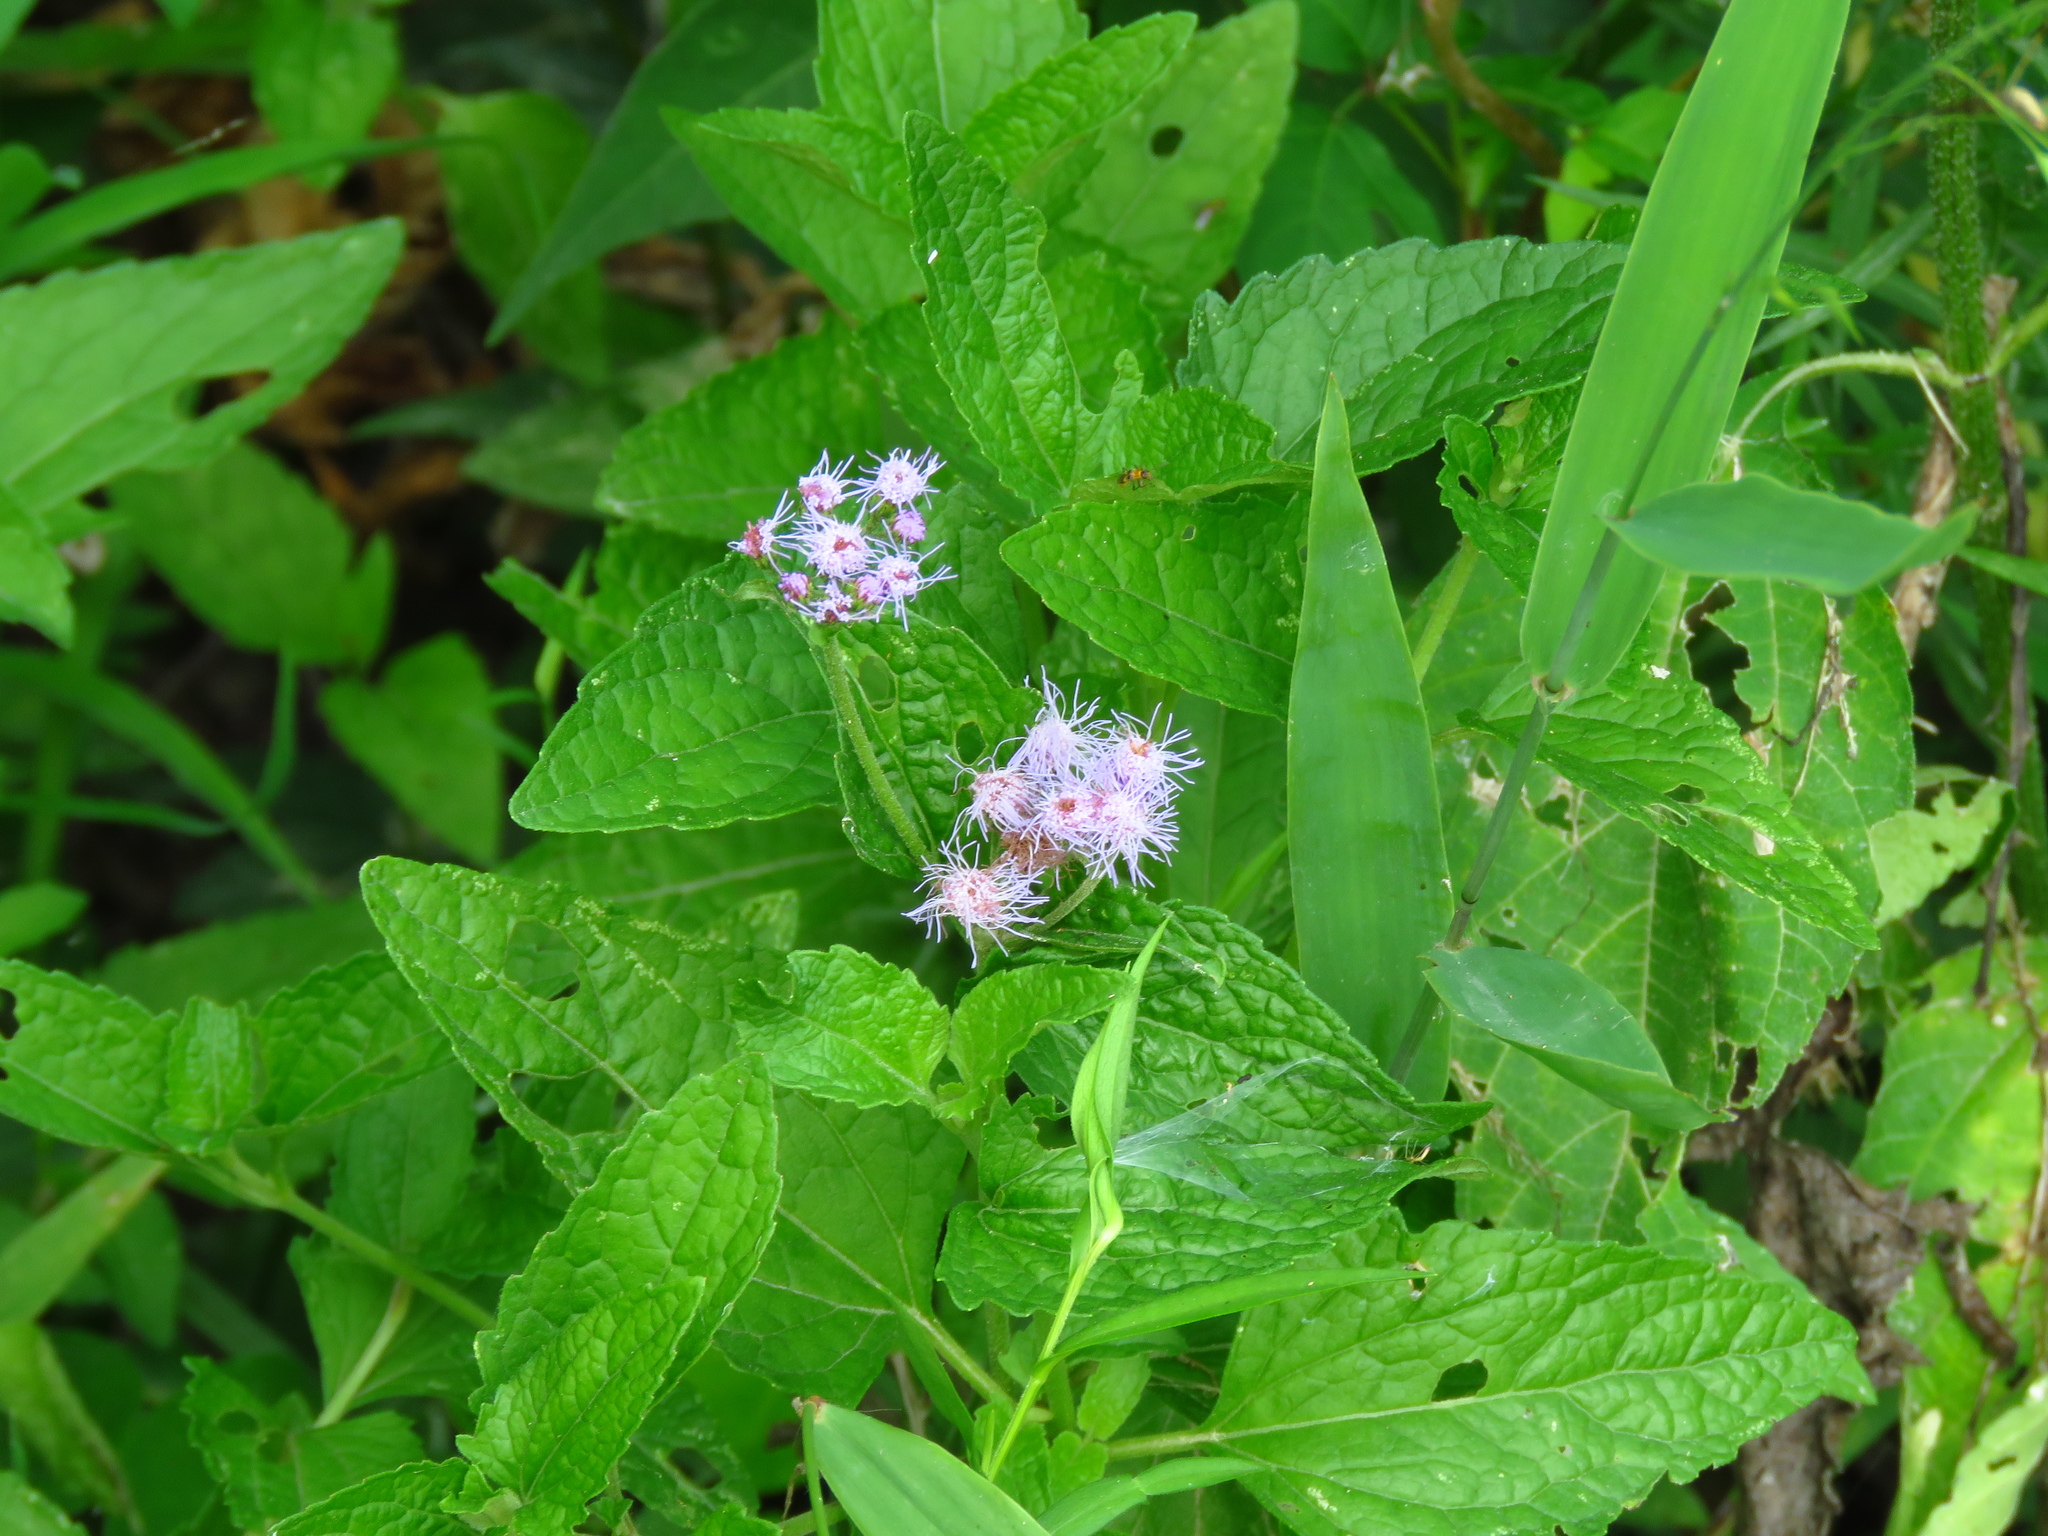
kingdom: Plantae
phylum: Tracheophyta
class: Magnoliopsida
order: Asterales
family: Asteraceae
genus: Conoclinium
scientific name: Conoclinium coelestinum
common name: Blue mistflower
